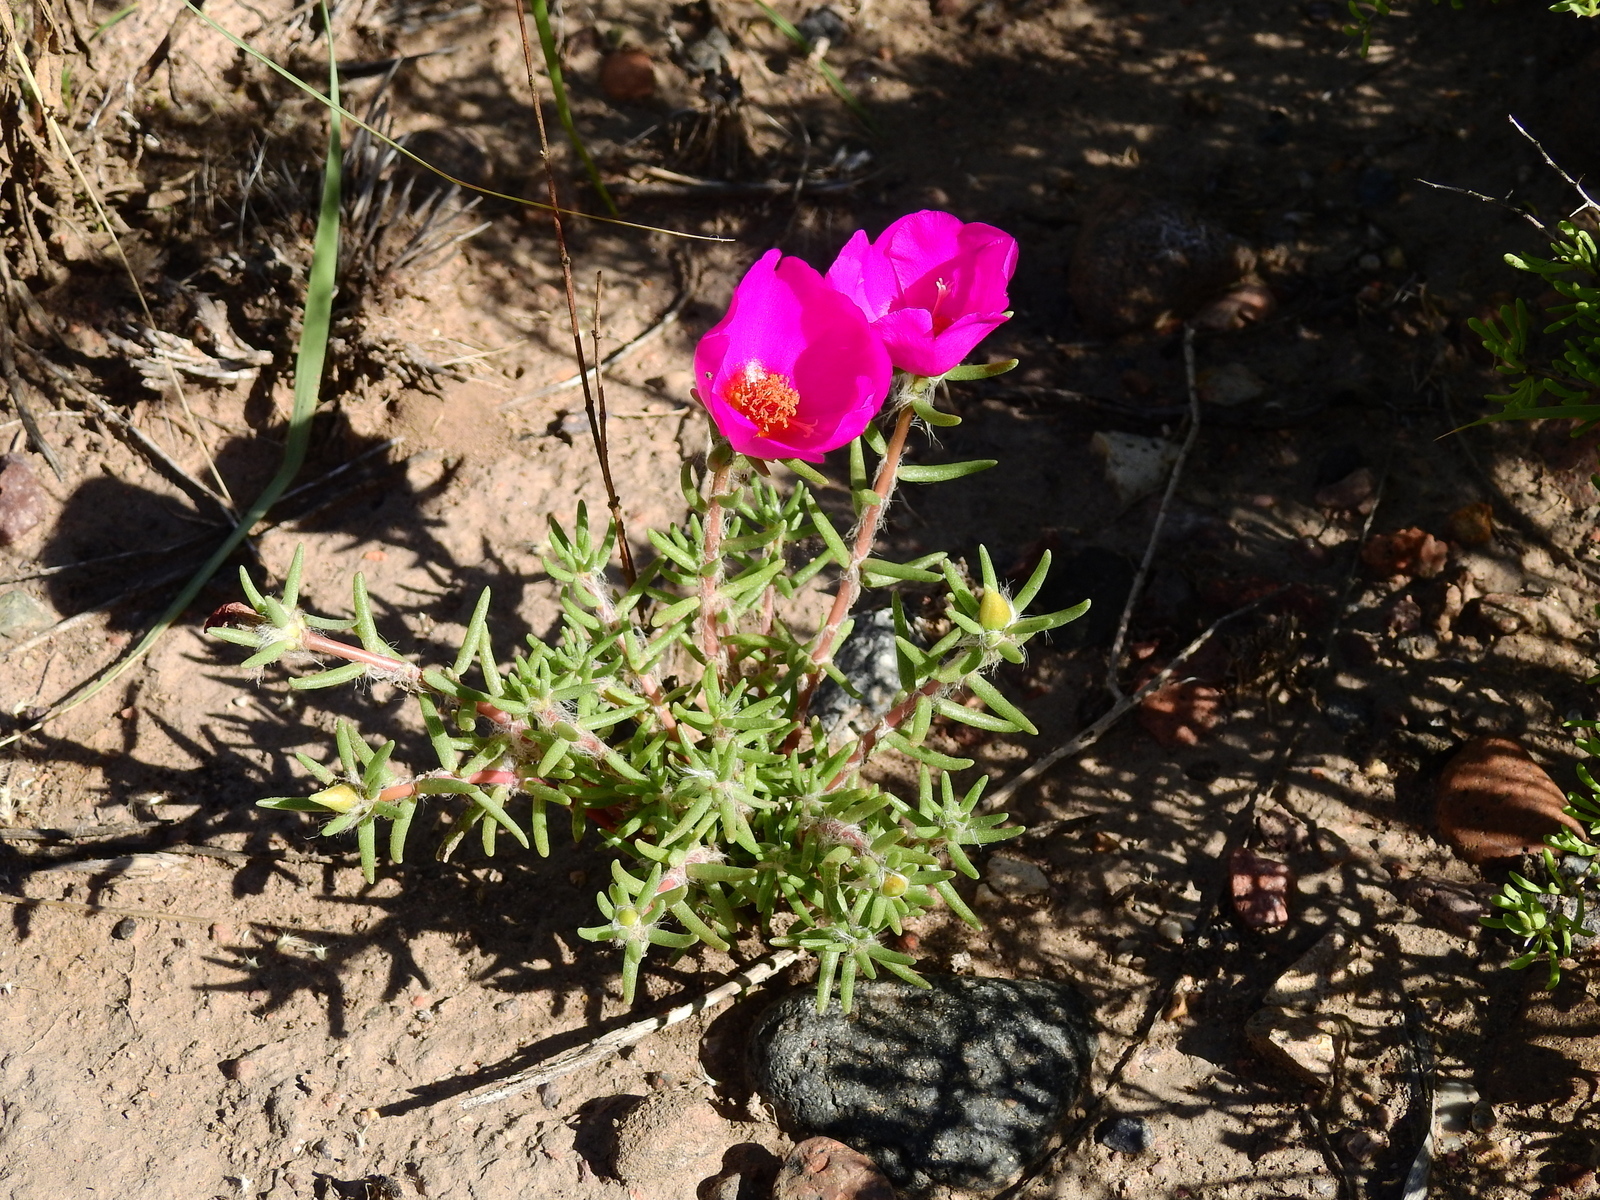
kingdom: Plantae
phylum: Tracheophyta
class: Magnoliopsida
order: Caryophyllales
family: Portulacaceae
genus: Portulaca
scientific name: Portulaca grandiflora
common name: Moss-rose
